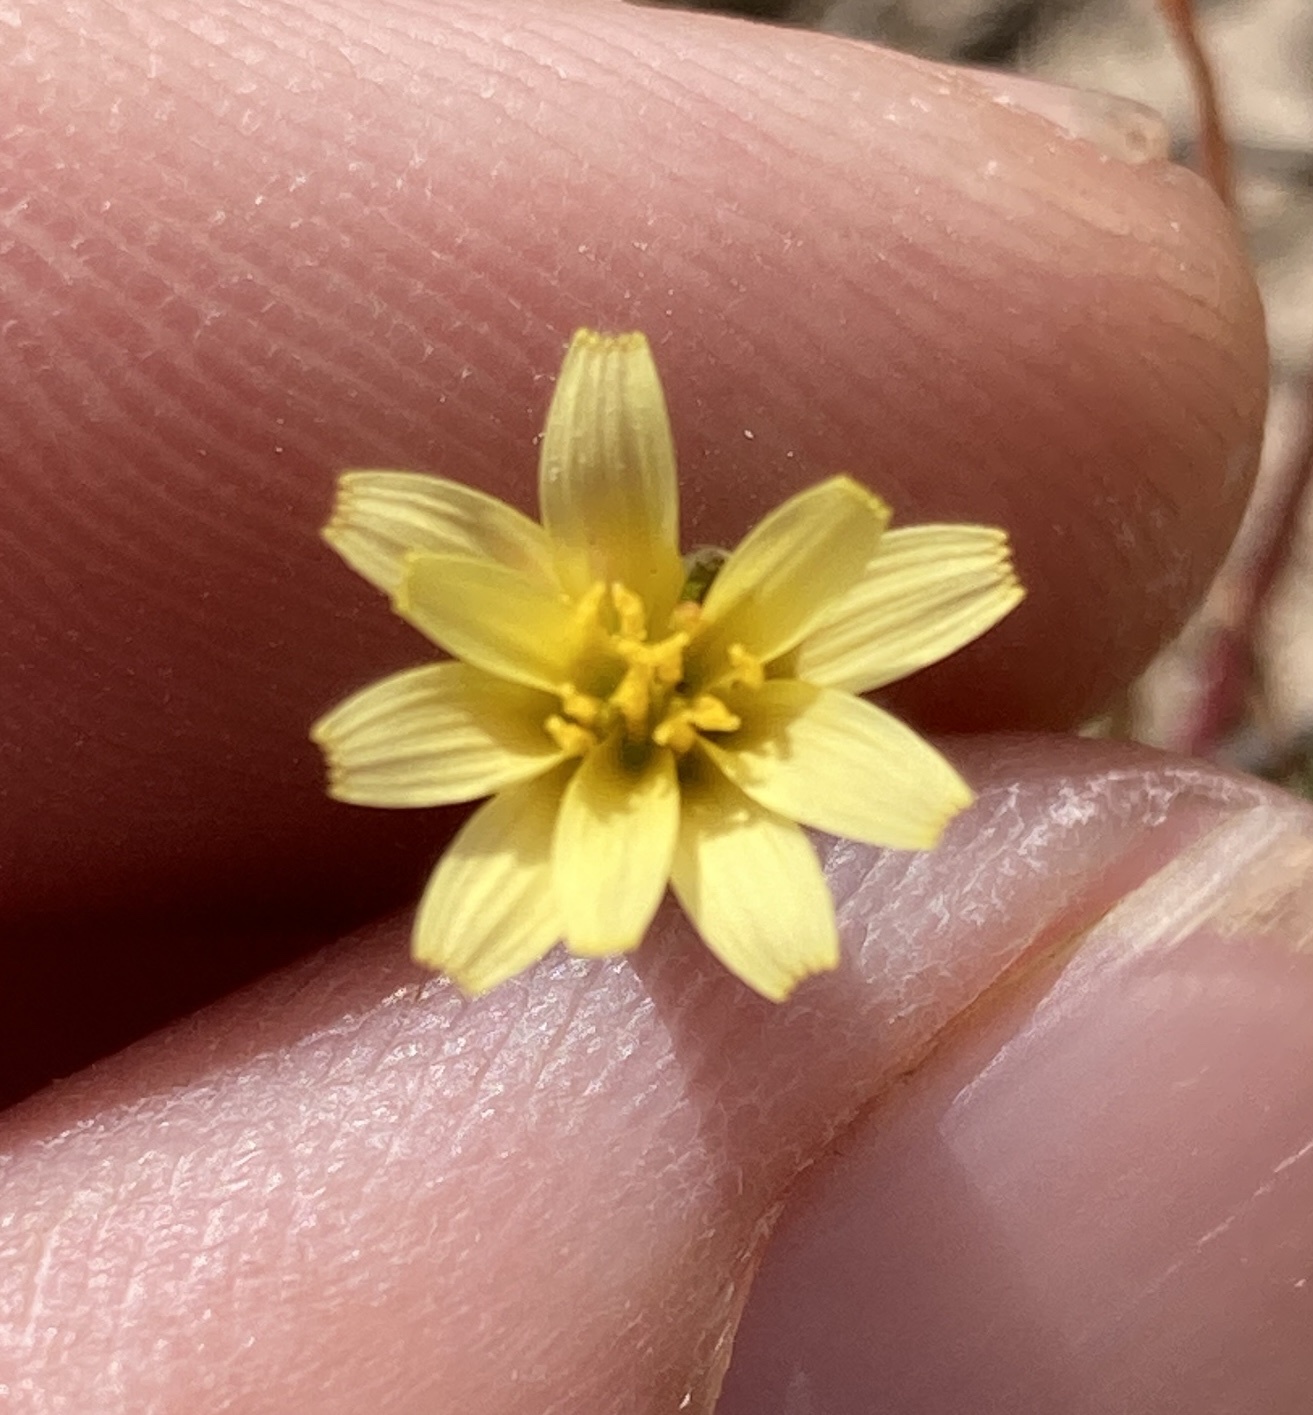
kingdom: Plantae
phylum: Tracheophyta
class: Magnoliopsida
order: Asterales
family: Asteraceae
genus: Microseris
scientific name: Microseris douglasii
